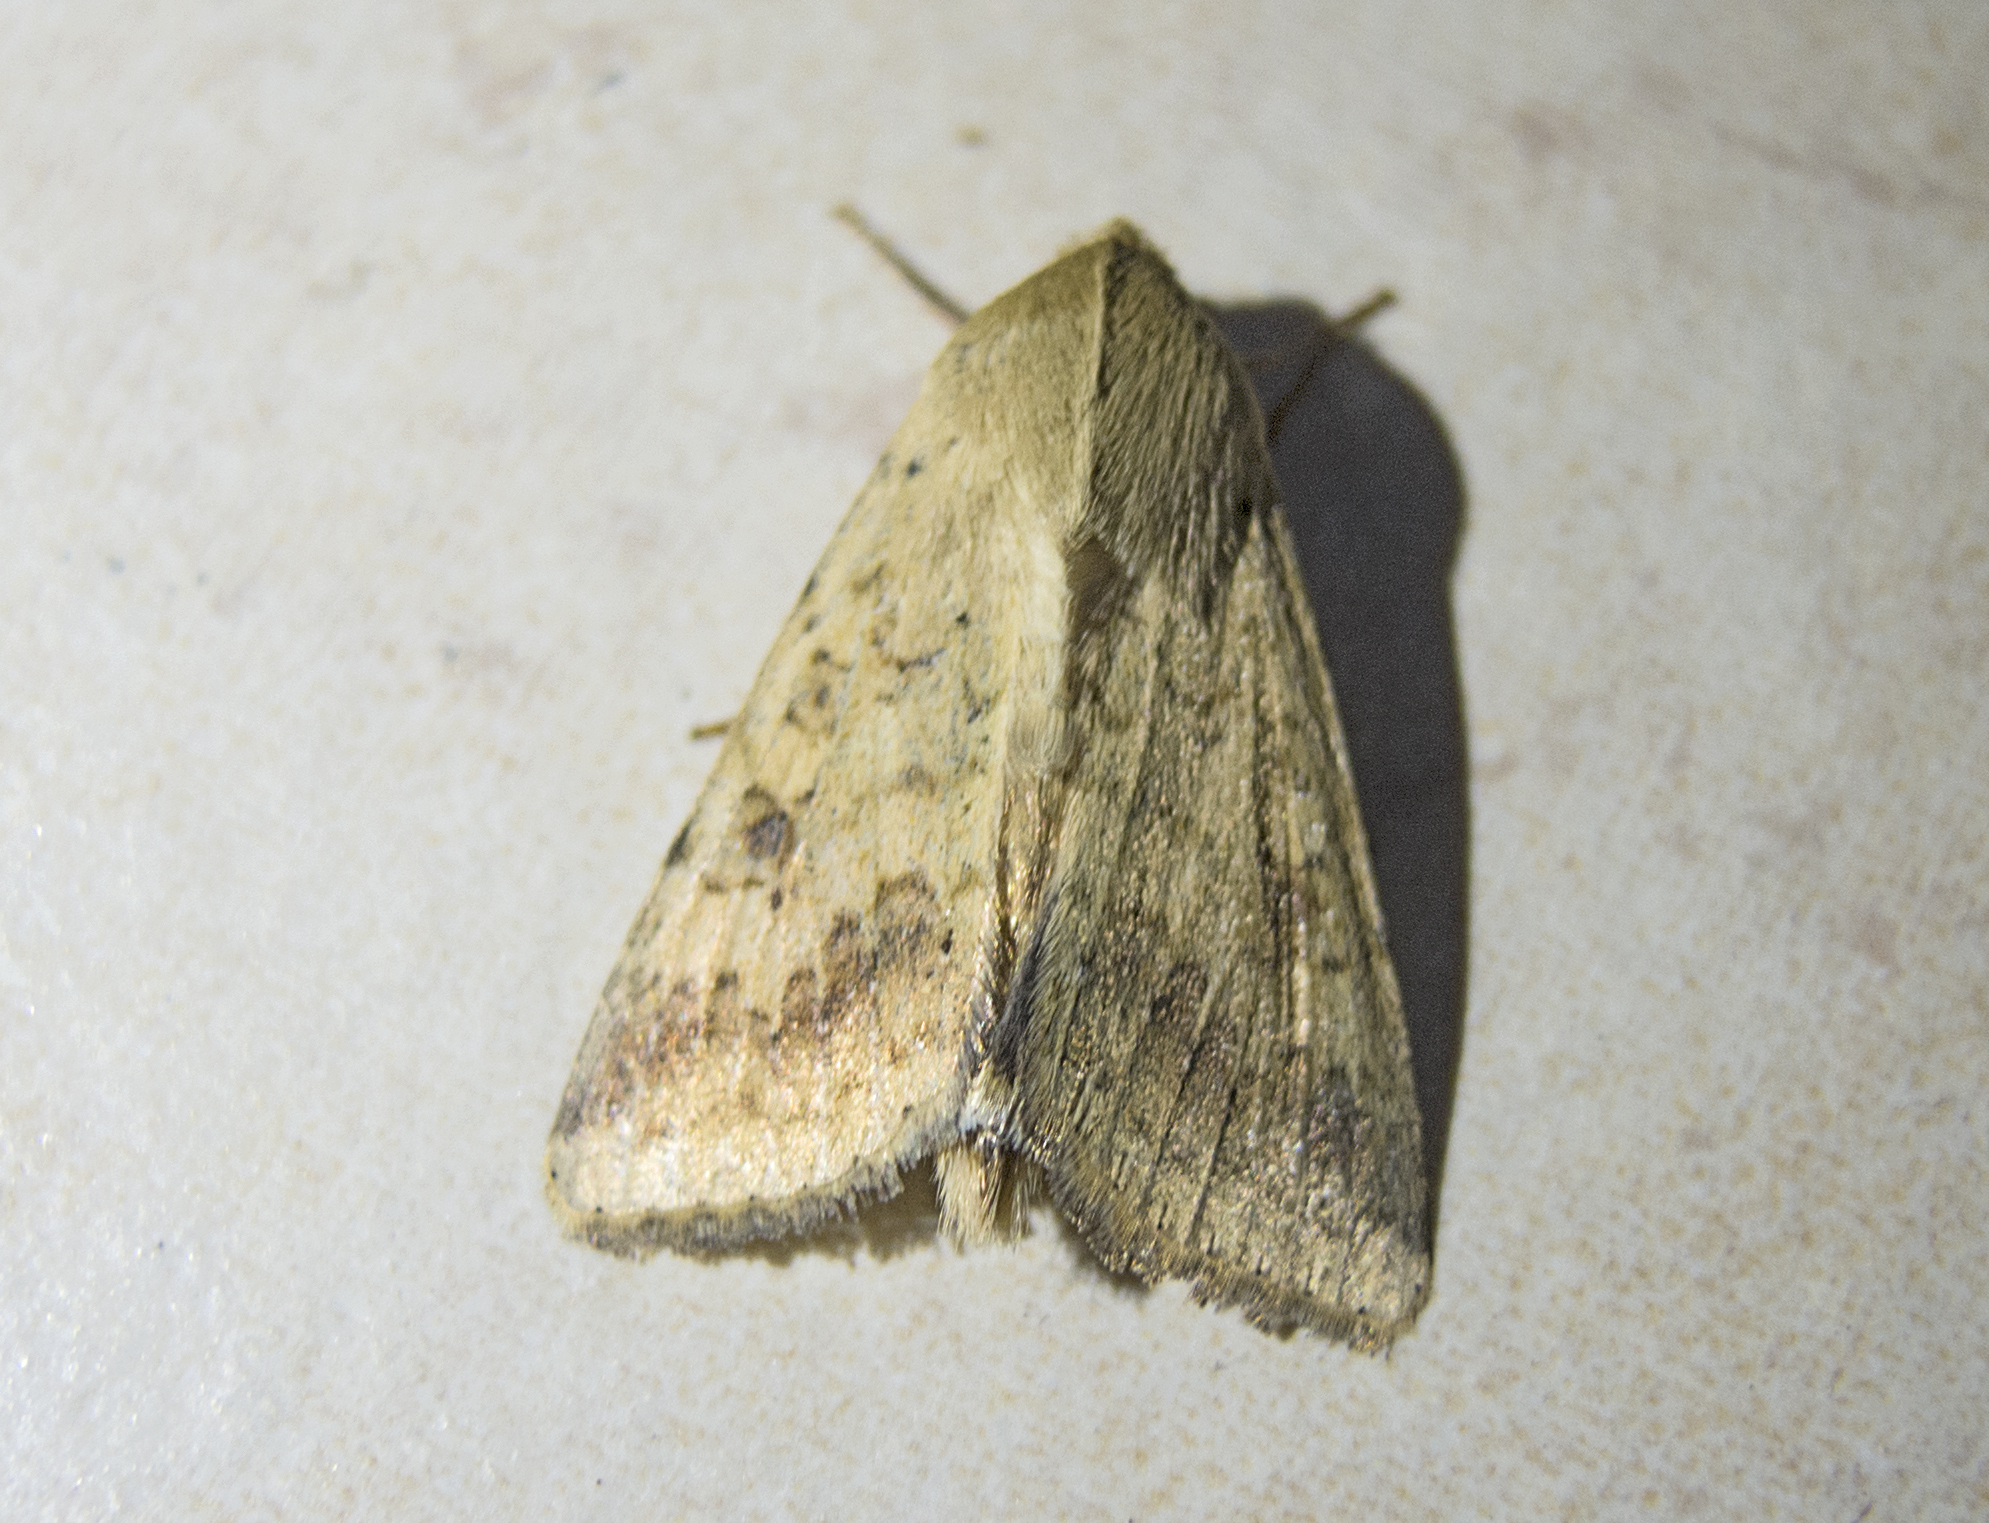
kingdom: Animalia
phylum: Arthropoda
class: Insecta
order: Lepidoptera
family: Noctuidae
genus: Helicoverpa
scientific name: Helicoverpa armigera
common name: Cotton bollworm
